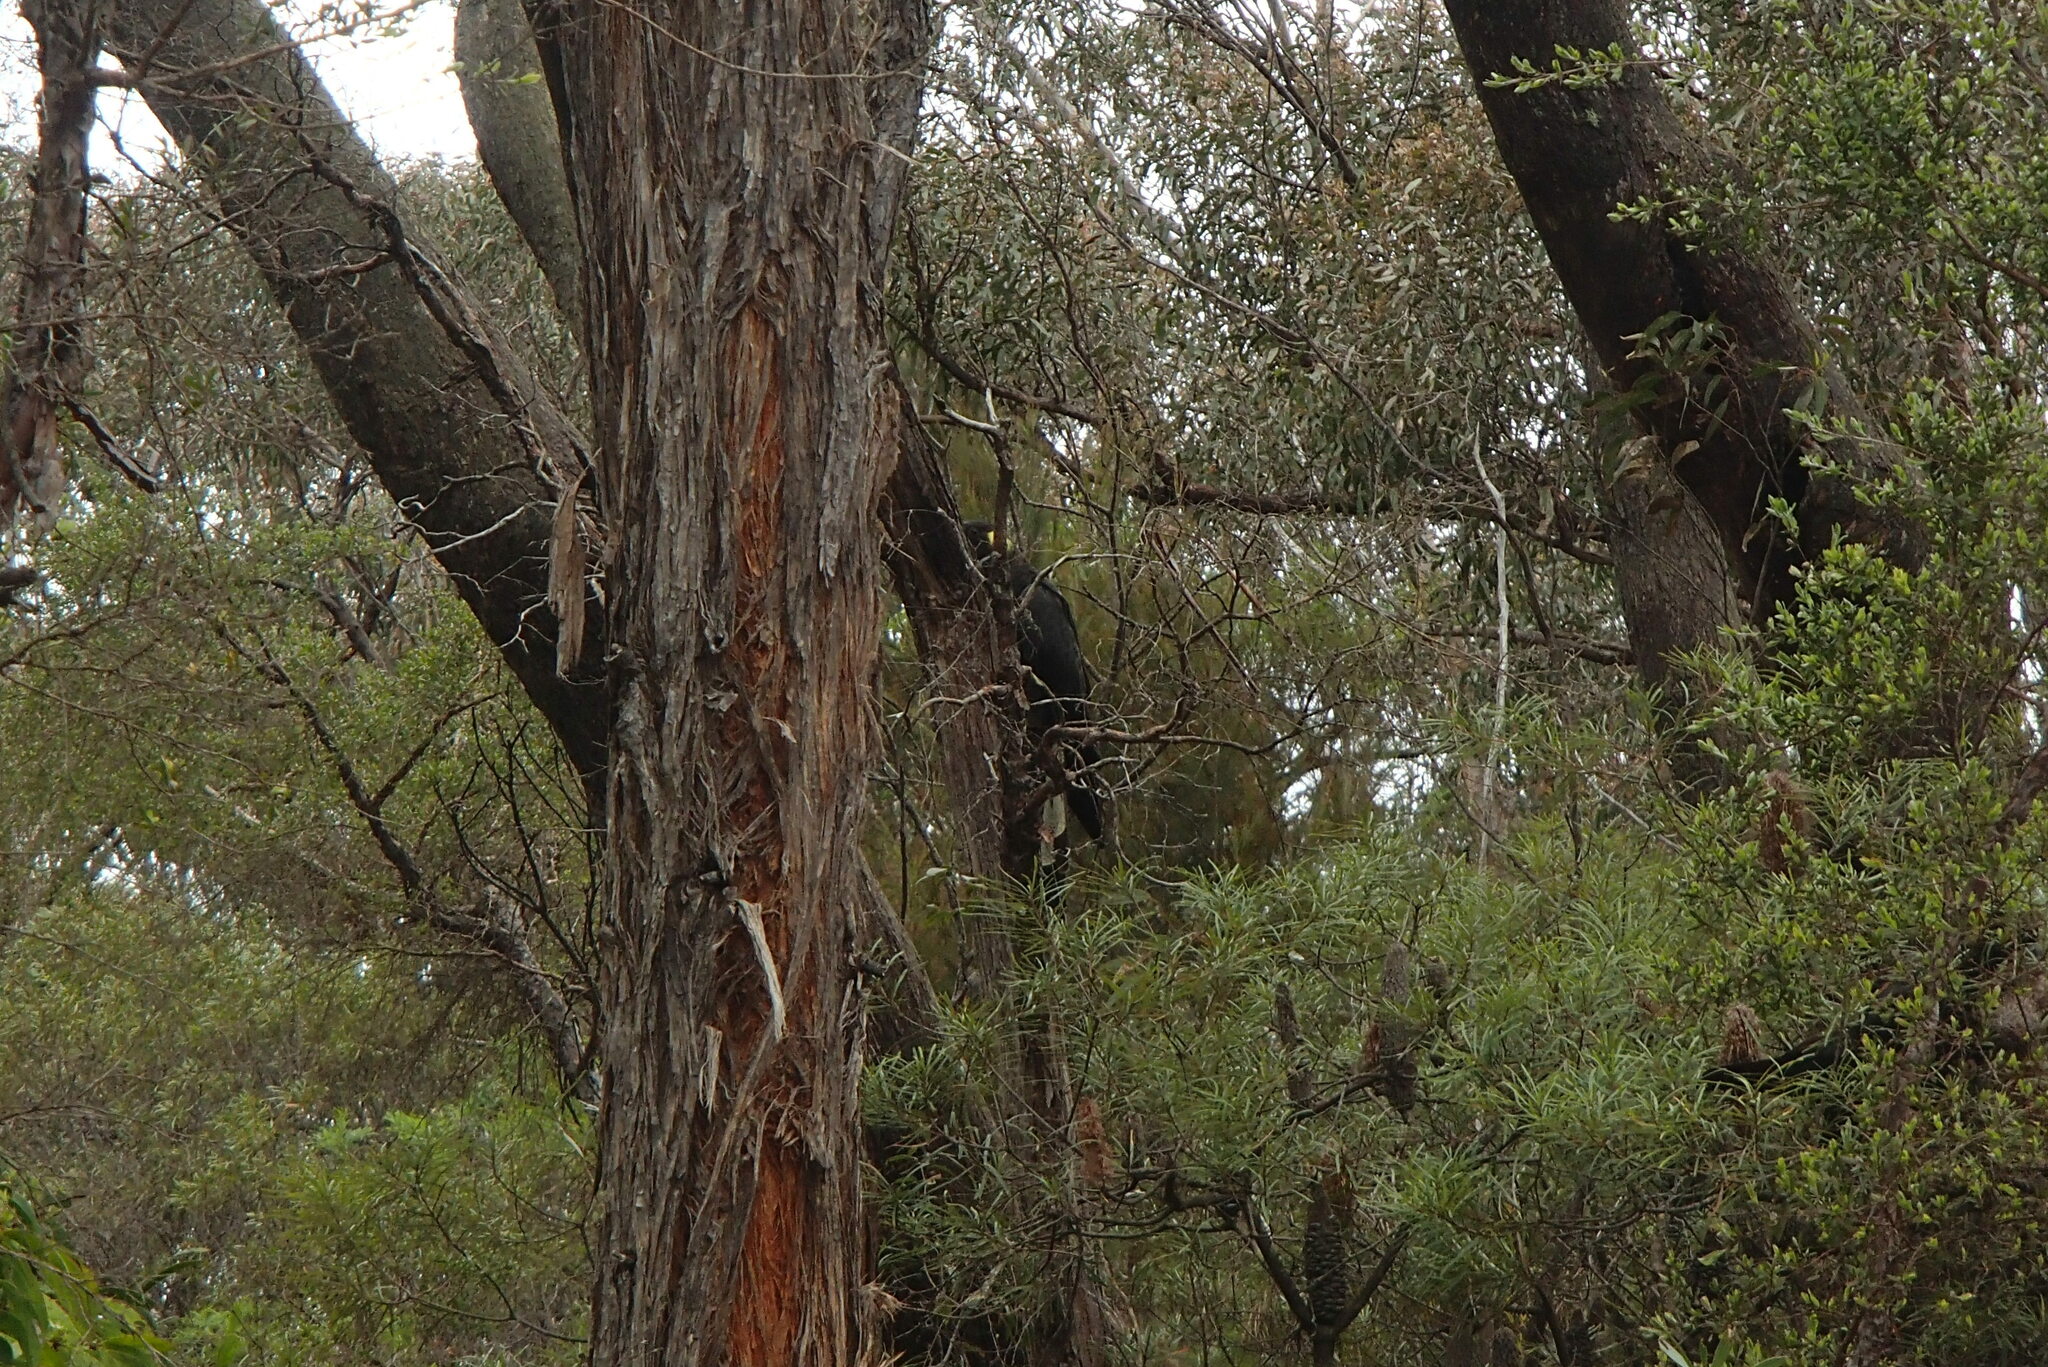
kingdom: Animalia
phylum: Chordata
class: Aves
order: Psittaciformes
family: Cacatuidae
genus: Zanda
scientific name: Zanda funerea
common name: Yellow-tailed black-cockatoo
